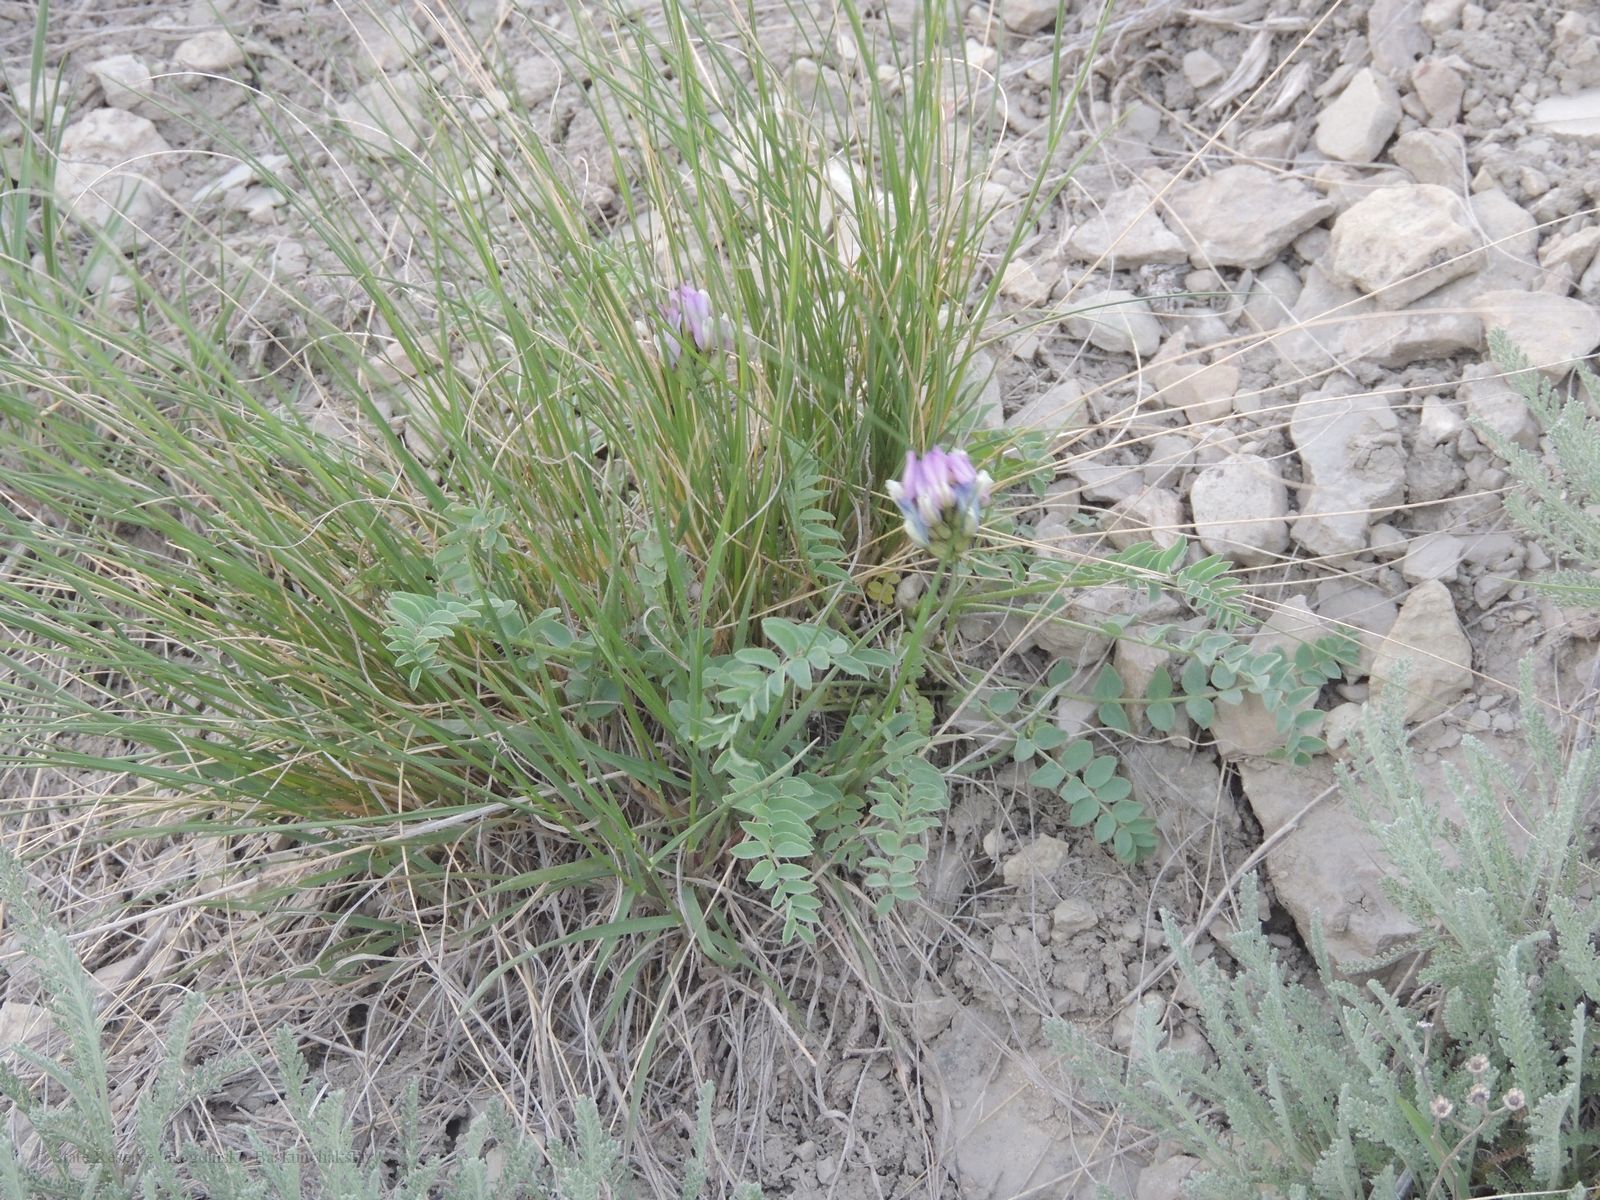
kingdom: Plantae
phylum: Tracheophyta
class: Magnoliopsida
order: Fabales
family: Fabaceae
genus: Astragalus
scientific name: Astragalus physodes
